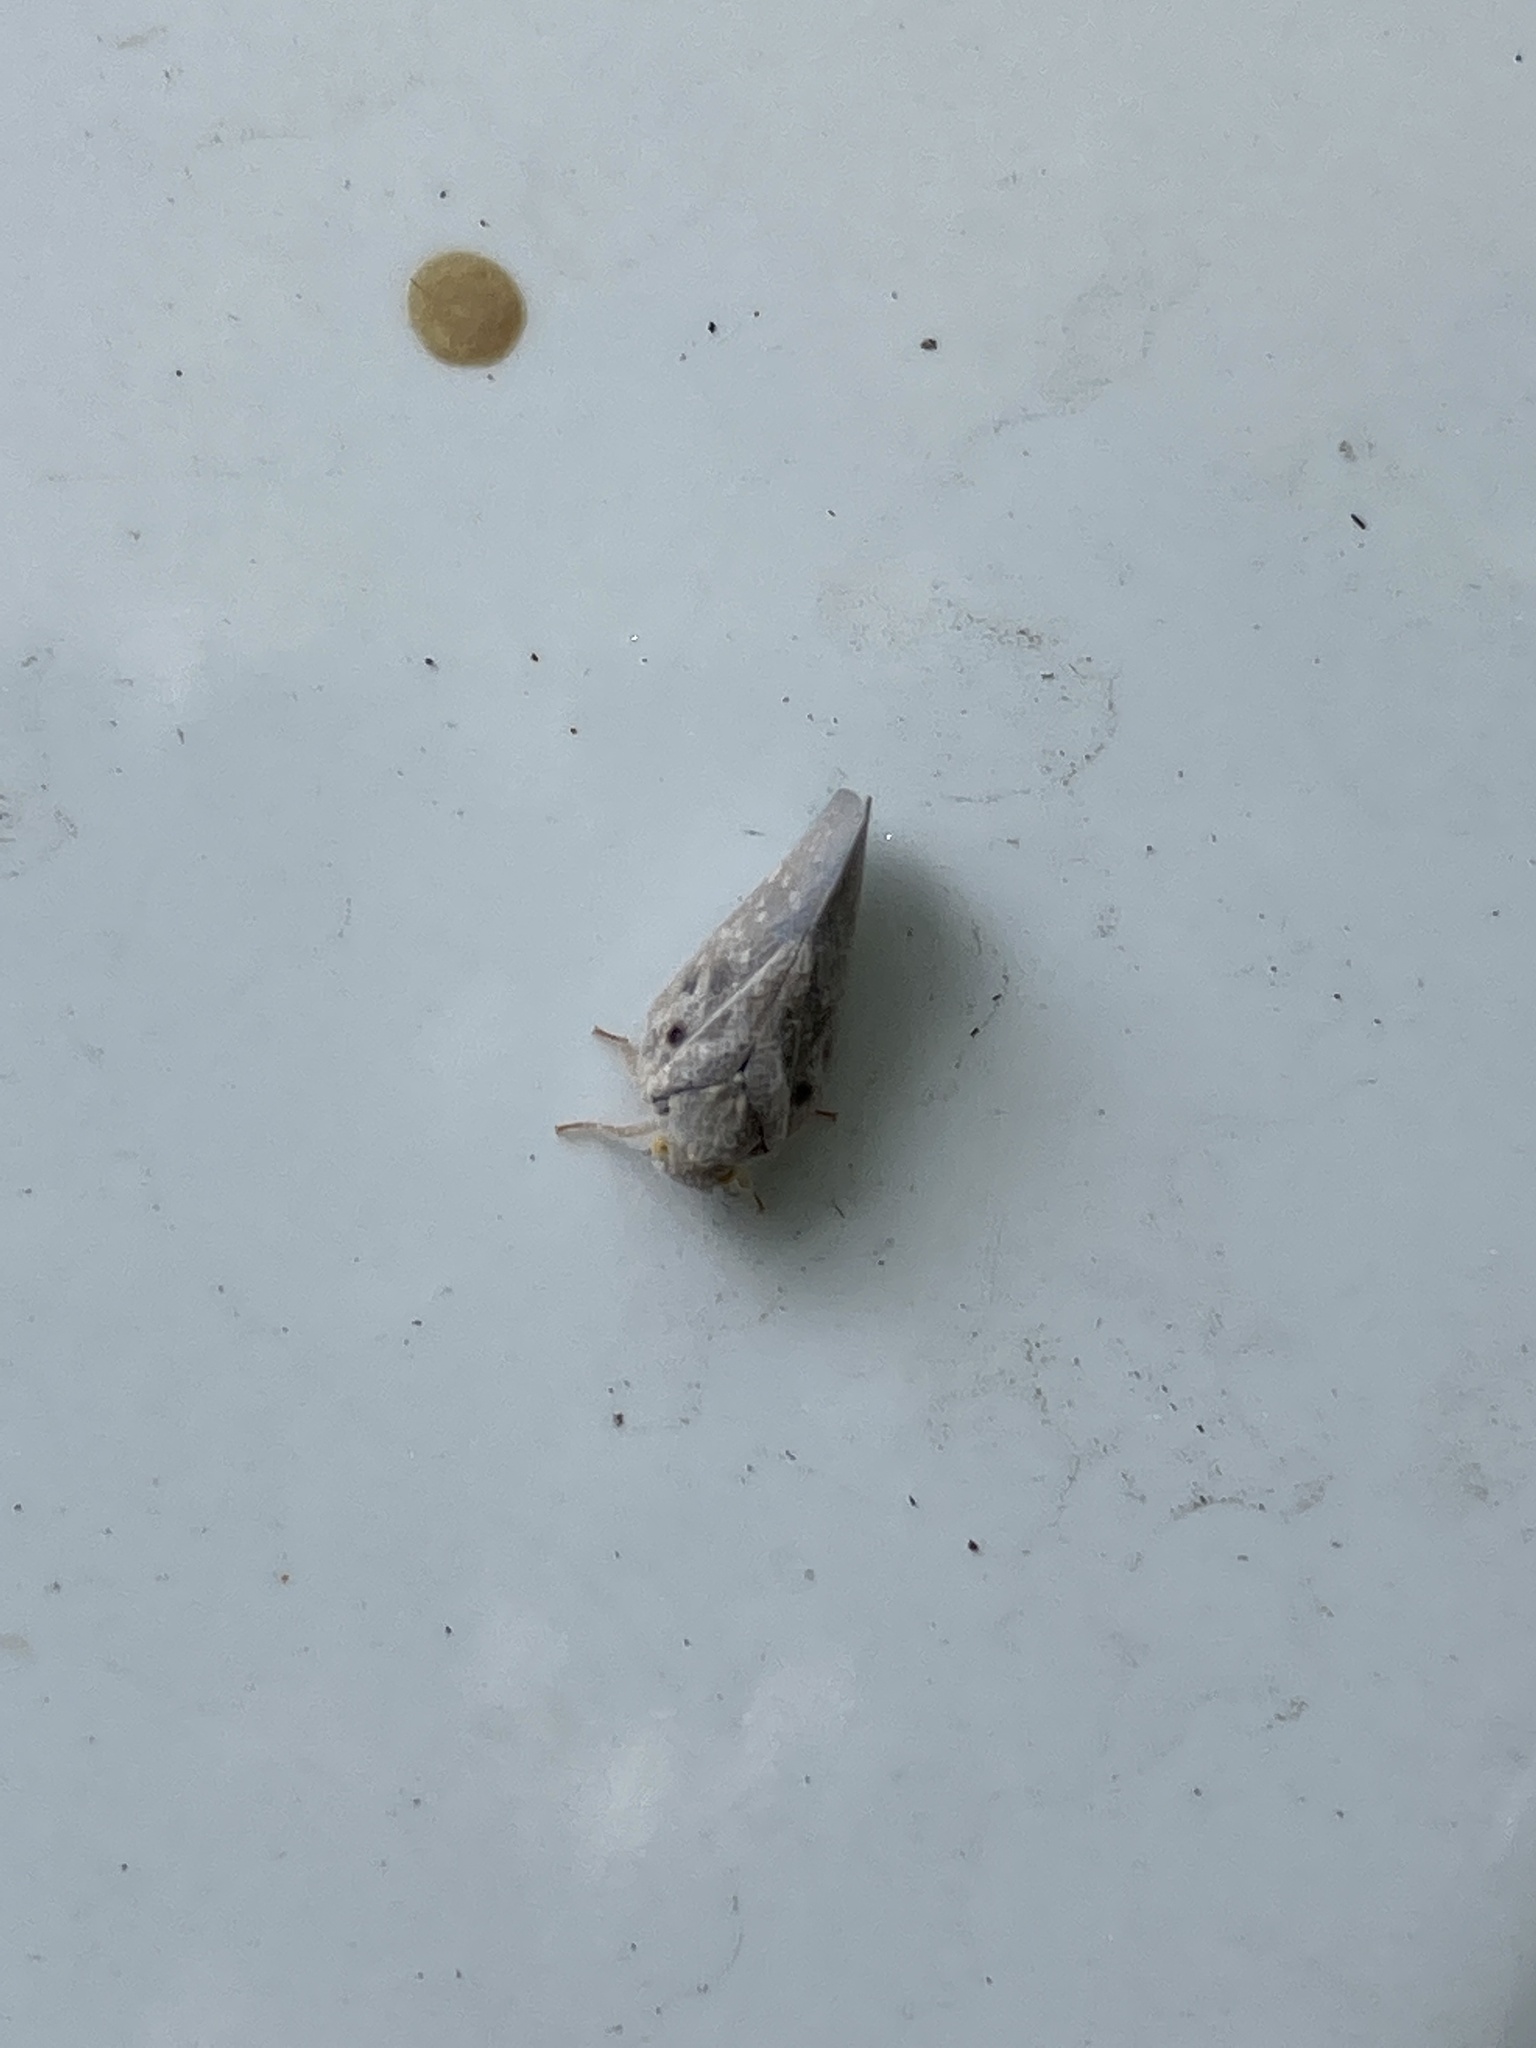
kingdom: Animalia
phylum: Arthropoda
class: Insecta
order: Hemiptera
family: Flatidae
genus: Metcalfa
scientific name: Metcalfa pruinosa
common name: Citrus flatid planthopper
